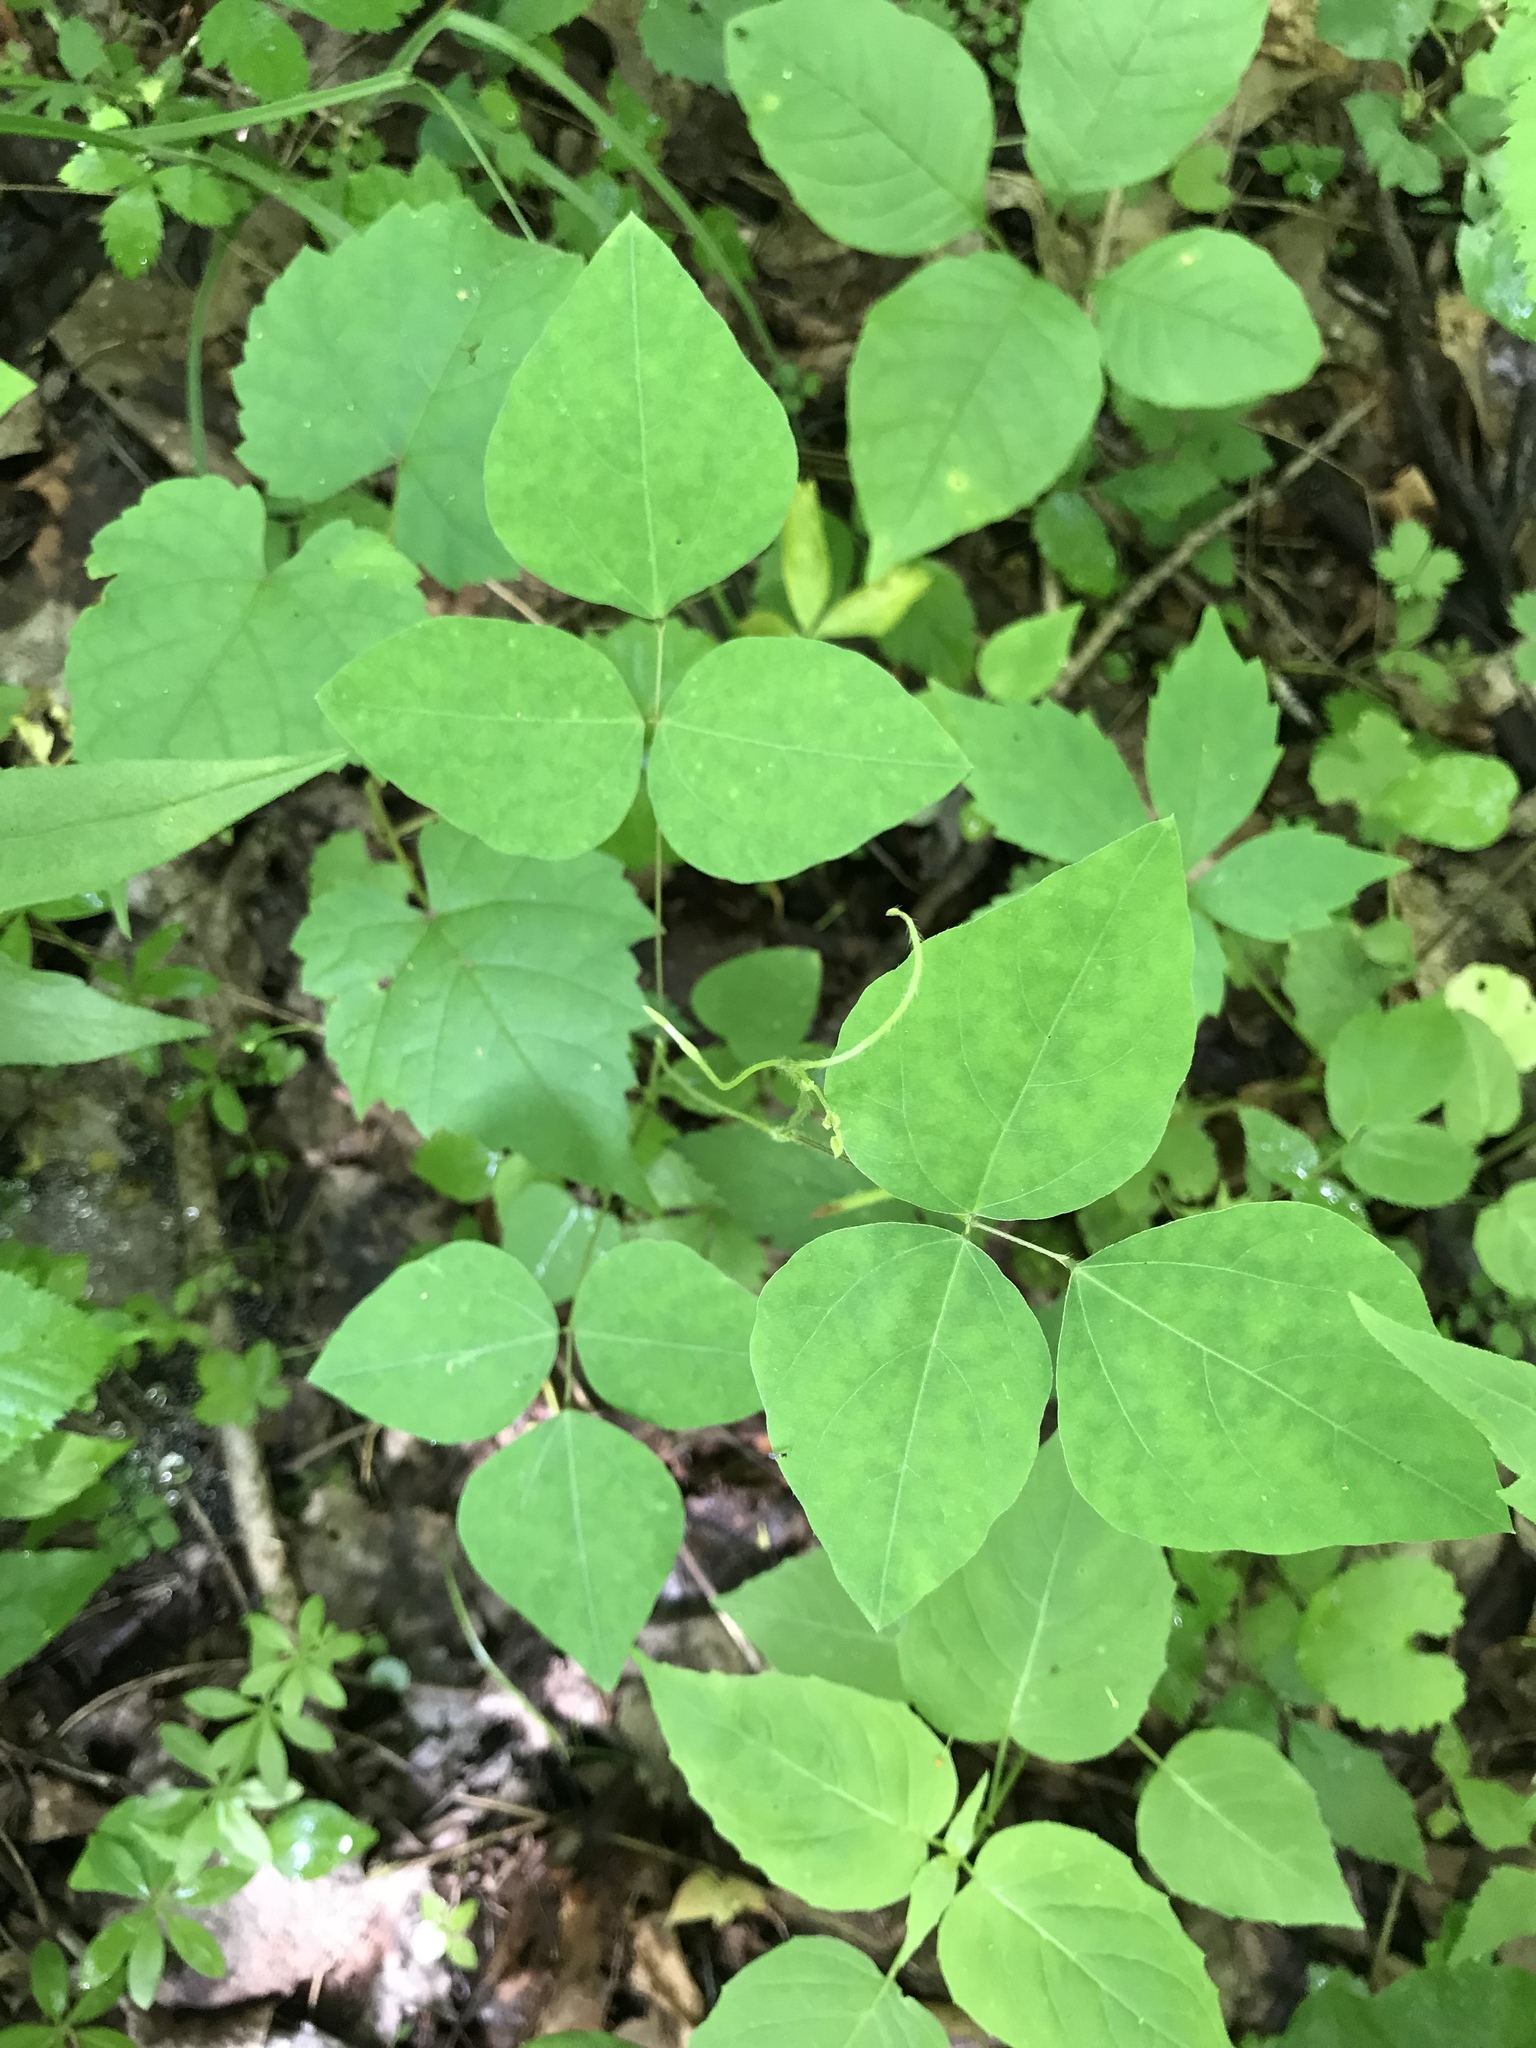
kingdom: Plantae
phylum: Tracheophyta
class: Magnoliopsida
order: Fabales
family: Fabaceae
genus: Amphicarpaea
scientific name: Amphicarpaea bracteata
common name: American hog peanut
